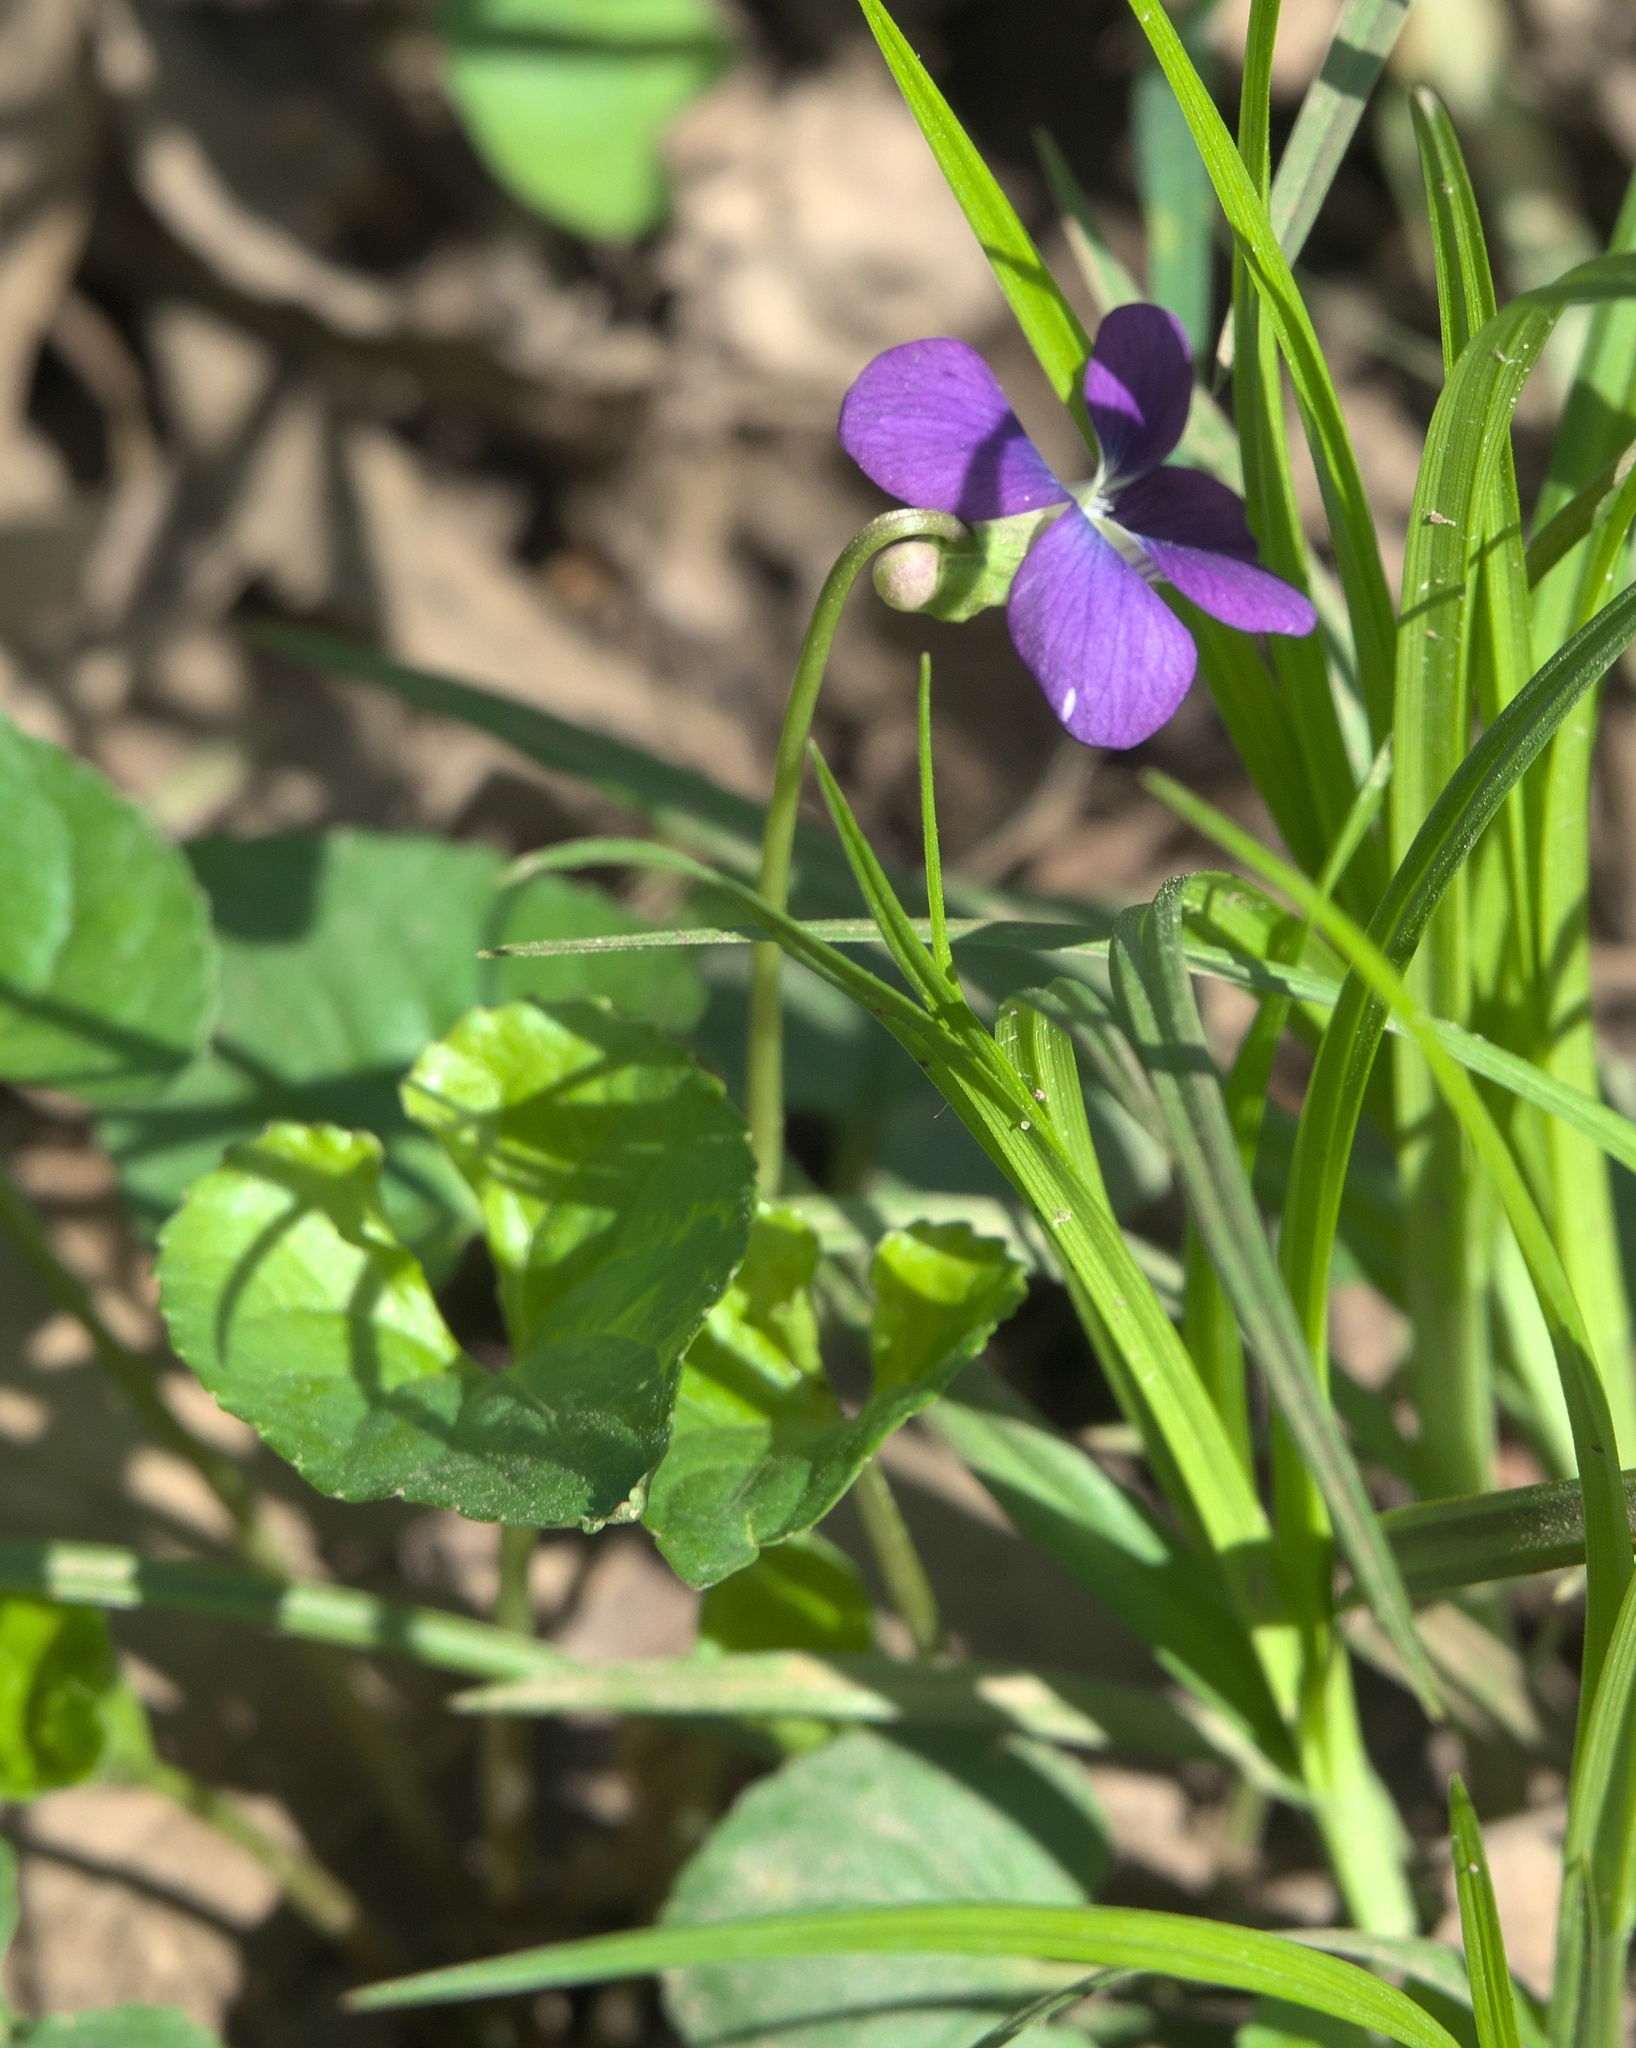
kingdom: Plantae
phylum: Tracheophyta
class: Magnoliopsida
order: Malpighiales
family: Violaceae
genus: Viola
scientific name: Viola sororia
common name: Dooryard violet
